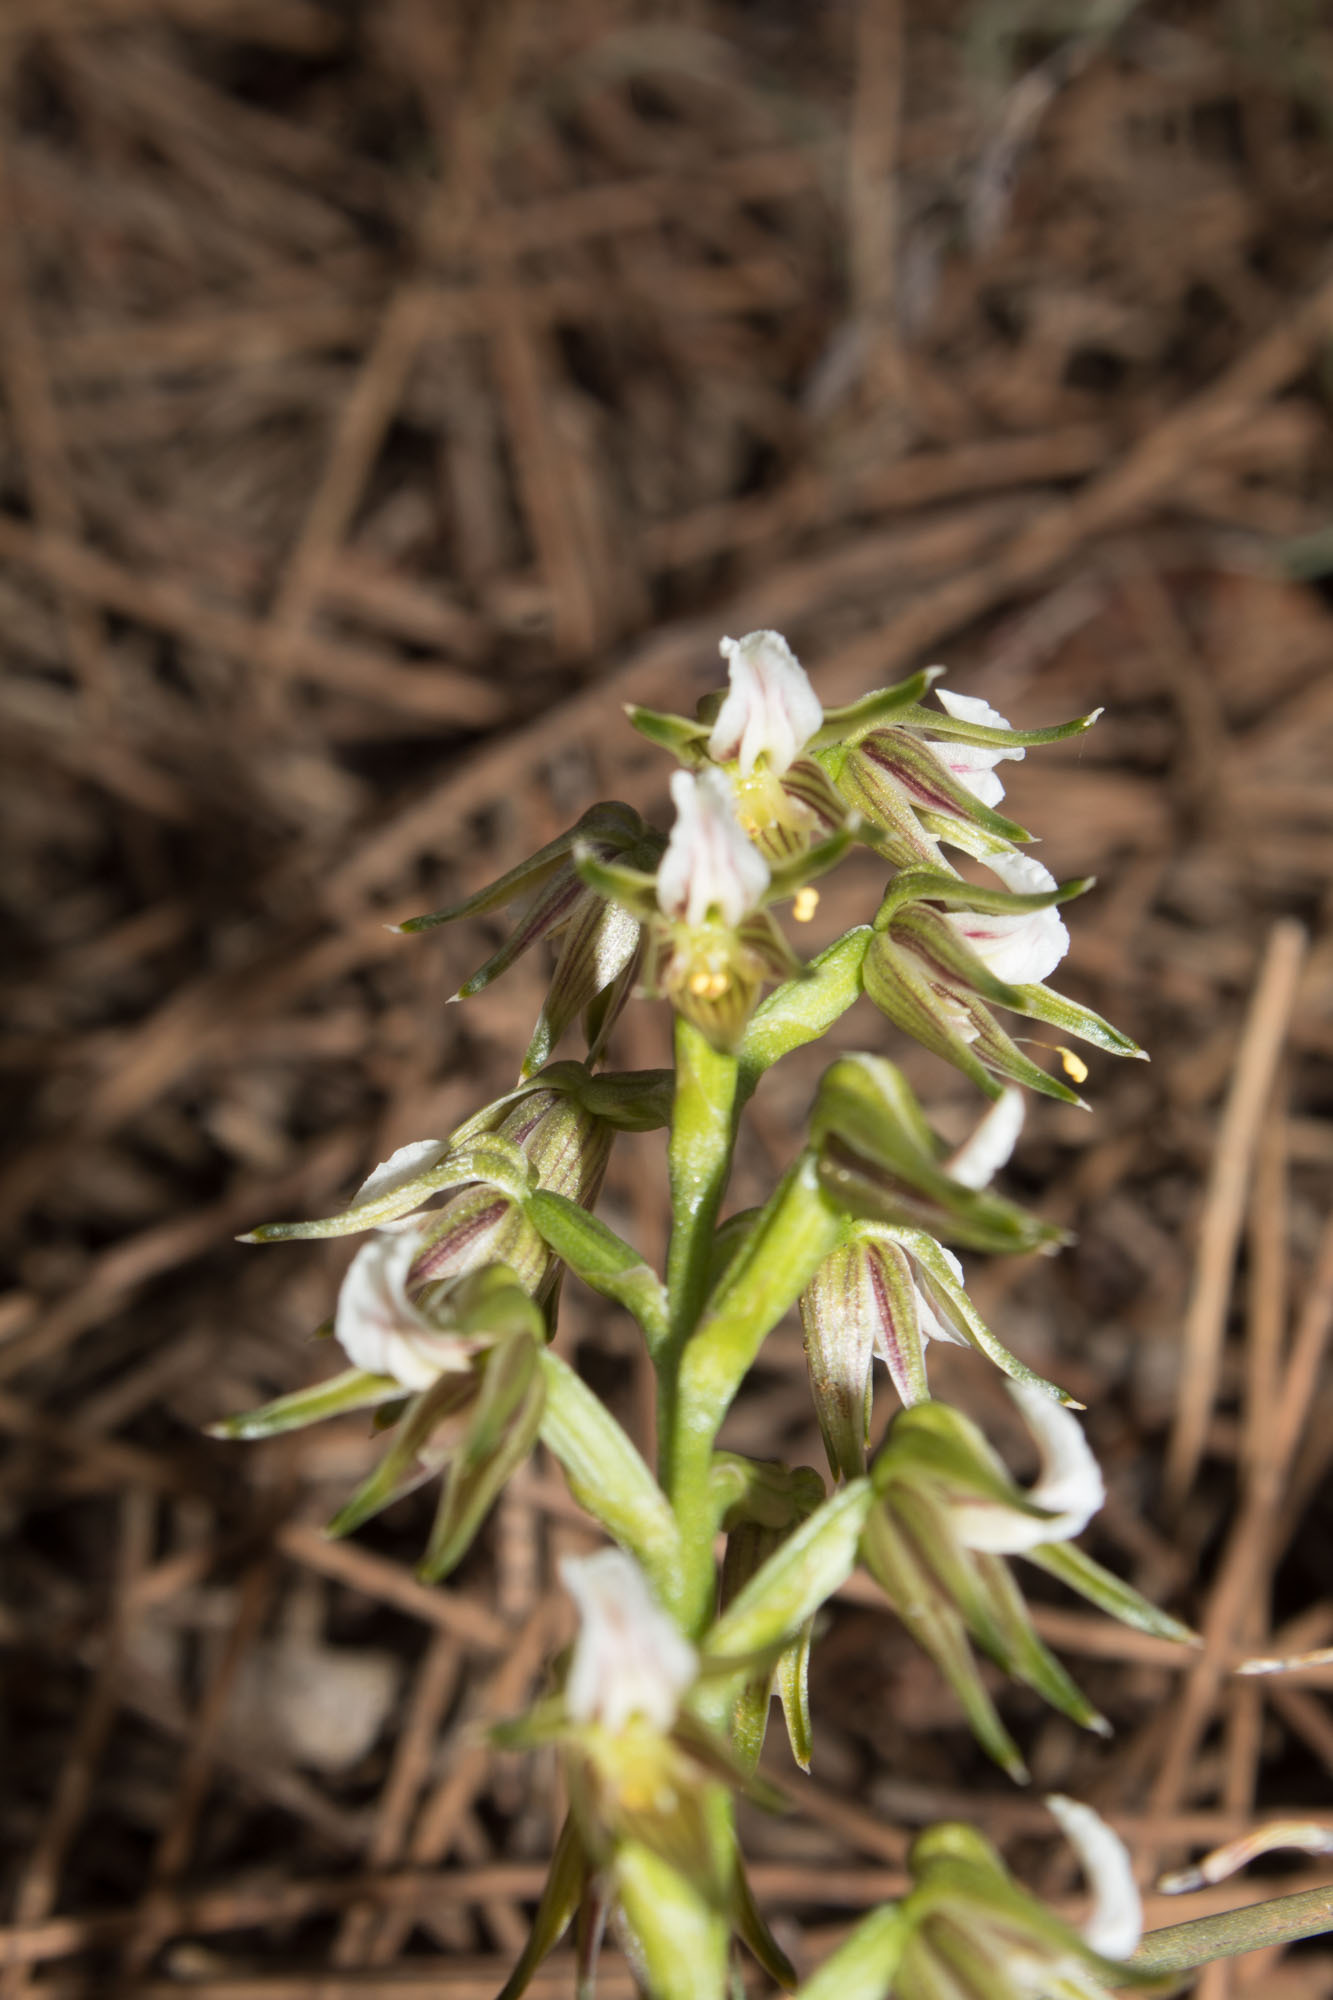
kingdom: Plantae
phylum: Tracheophyta
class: Liliopsida
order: Asparagales
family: Orchidaceae
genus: Prasophyllum
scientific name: Prasophyllum parvifolium
